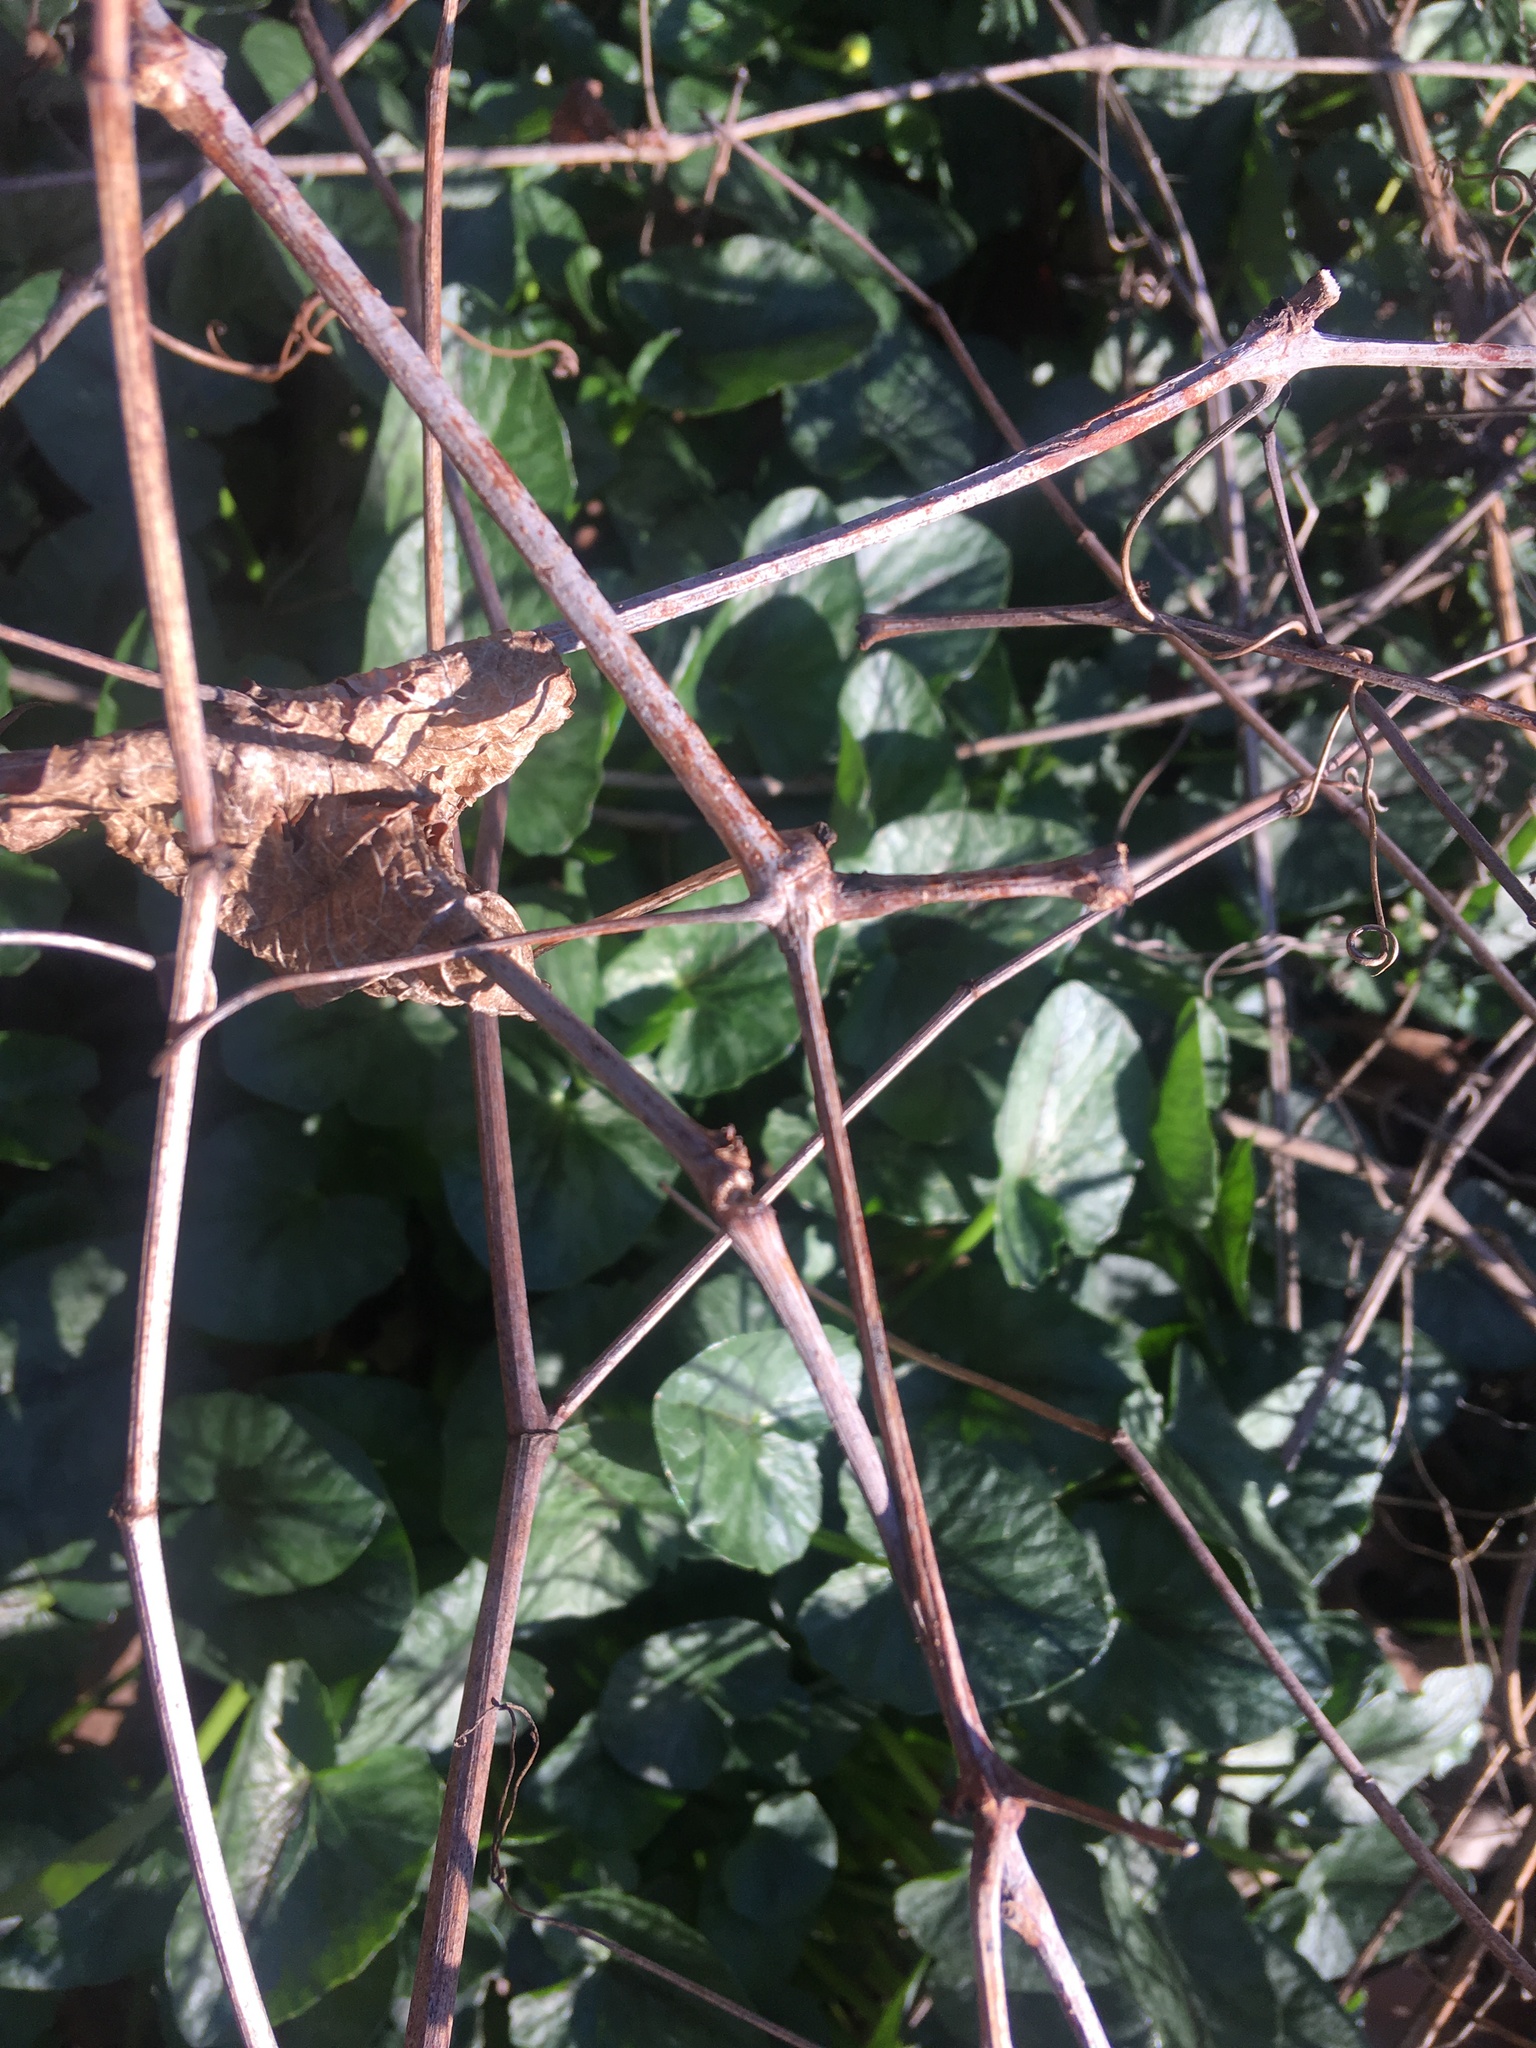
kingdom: Plantae
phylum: Tracheophyta
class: Magnoliopsida
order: Ranunculales
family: Ranunculaceae
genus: Ficaria
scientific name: Ficaria verna
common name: Lesser celandine
